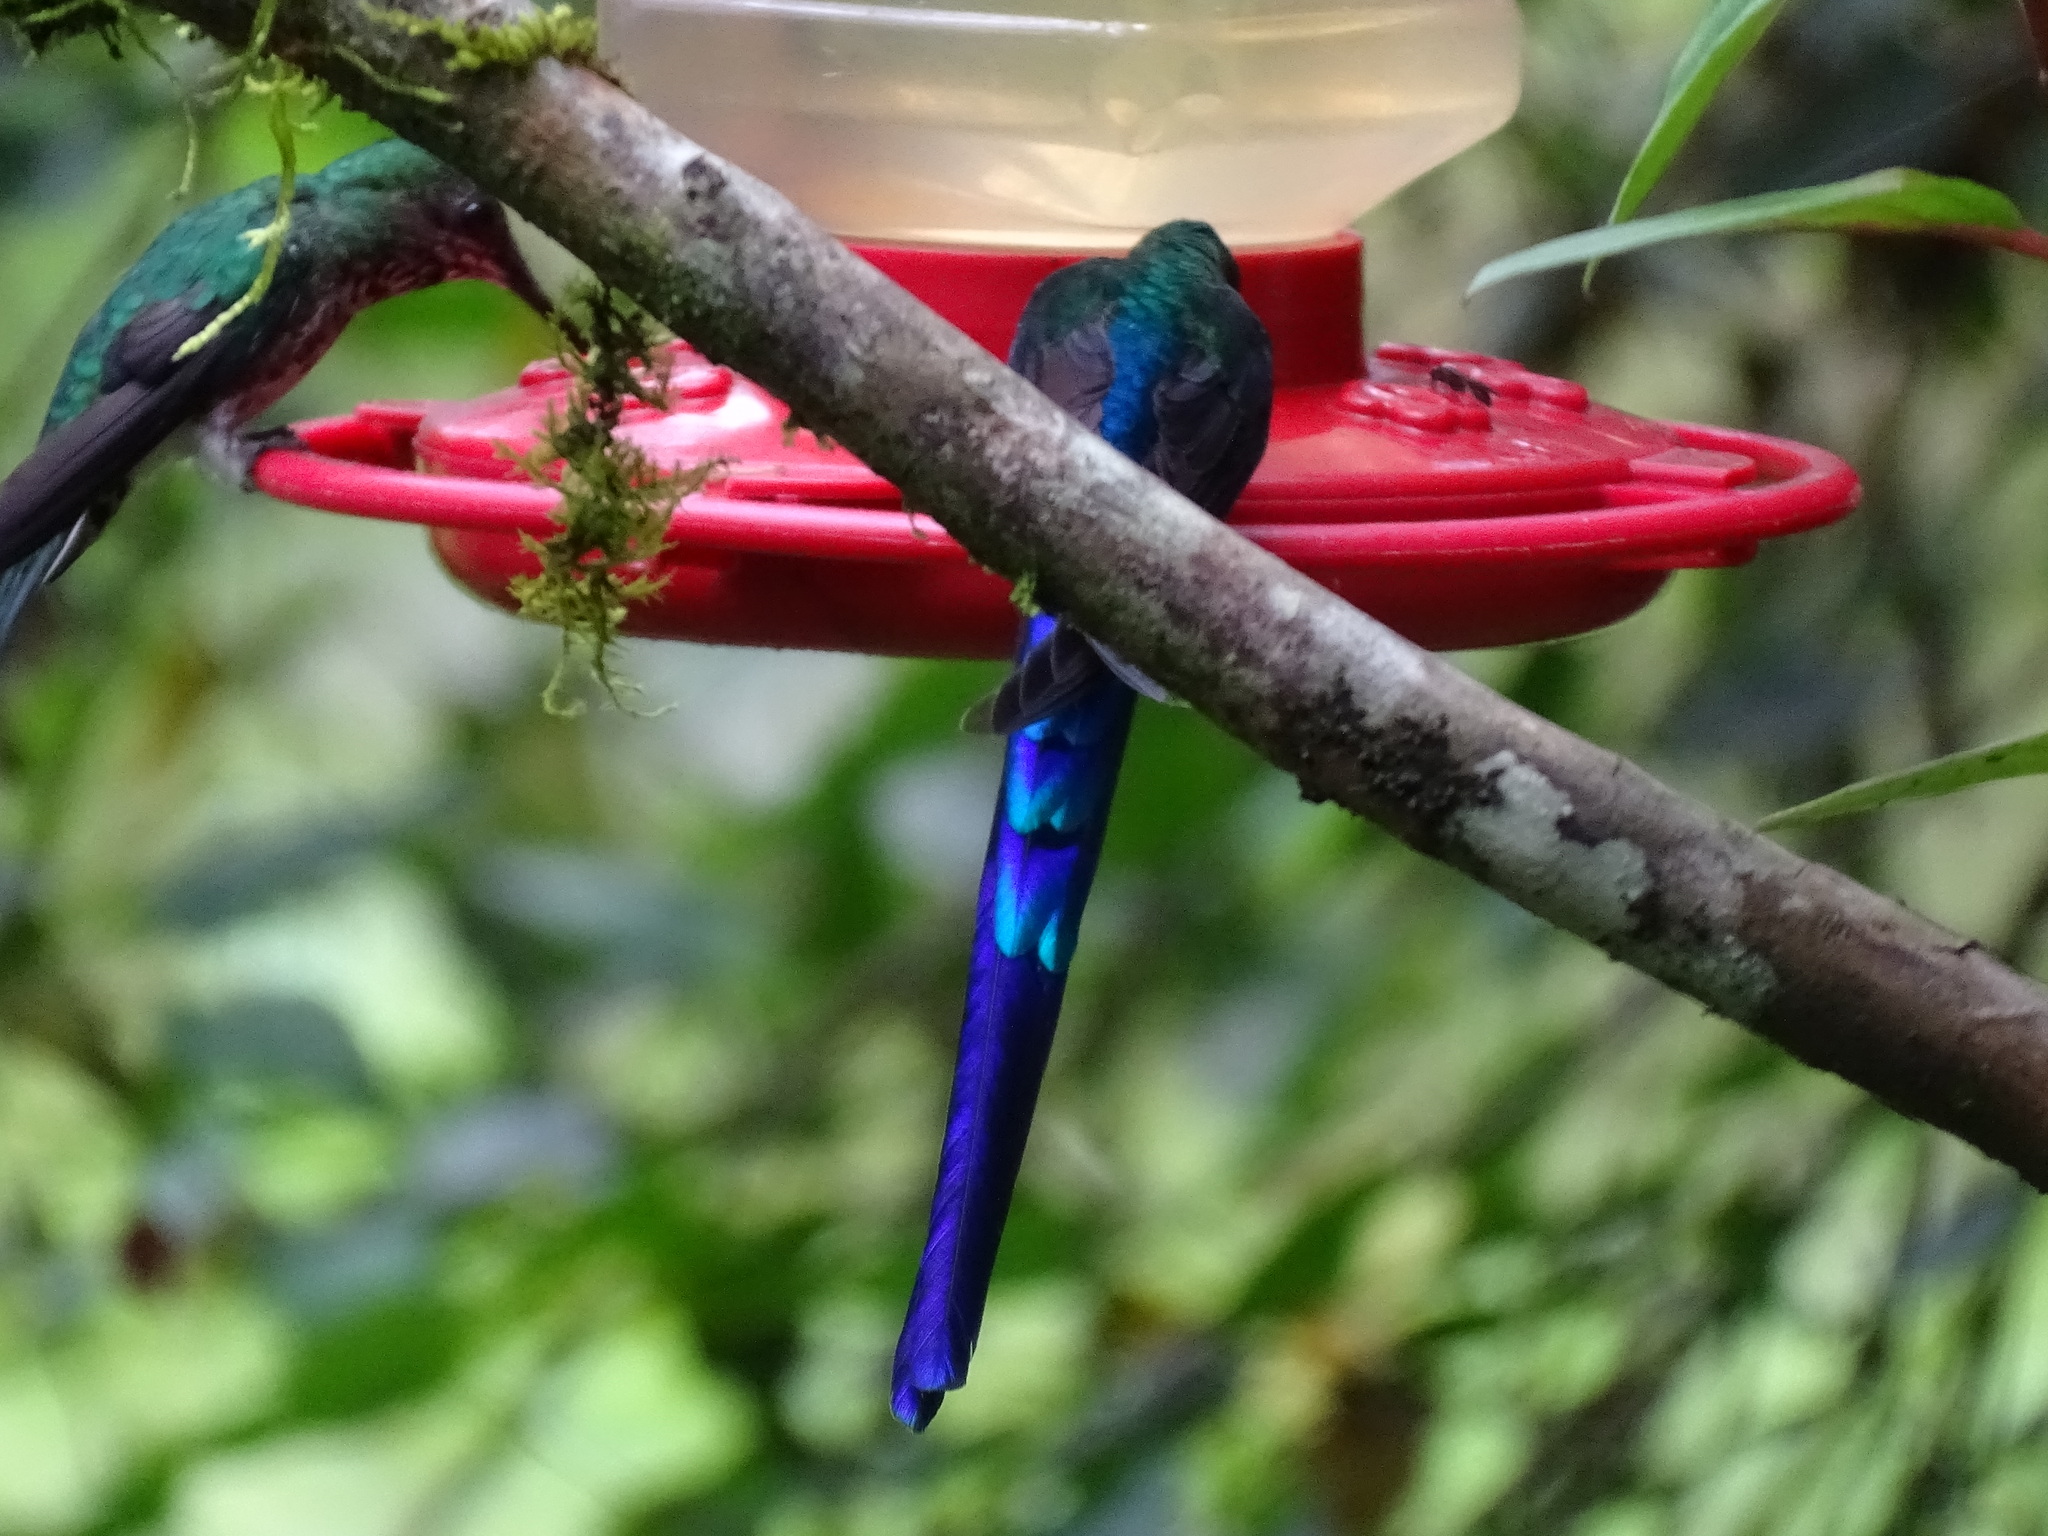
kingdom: Animalia
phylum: Chordata
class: Aves
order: Apodiformes
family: Trochilidae
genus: Aglaiocercus
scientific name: Aglaiocercus coelestis
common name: Violet-tailed sylph
